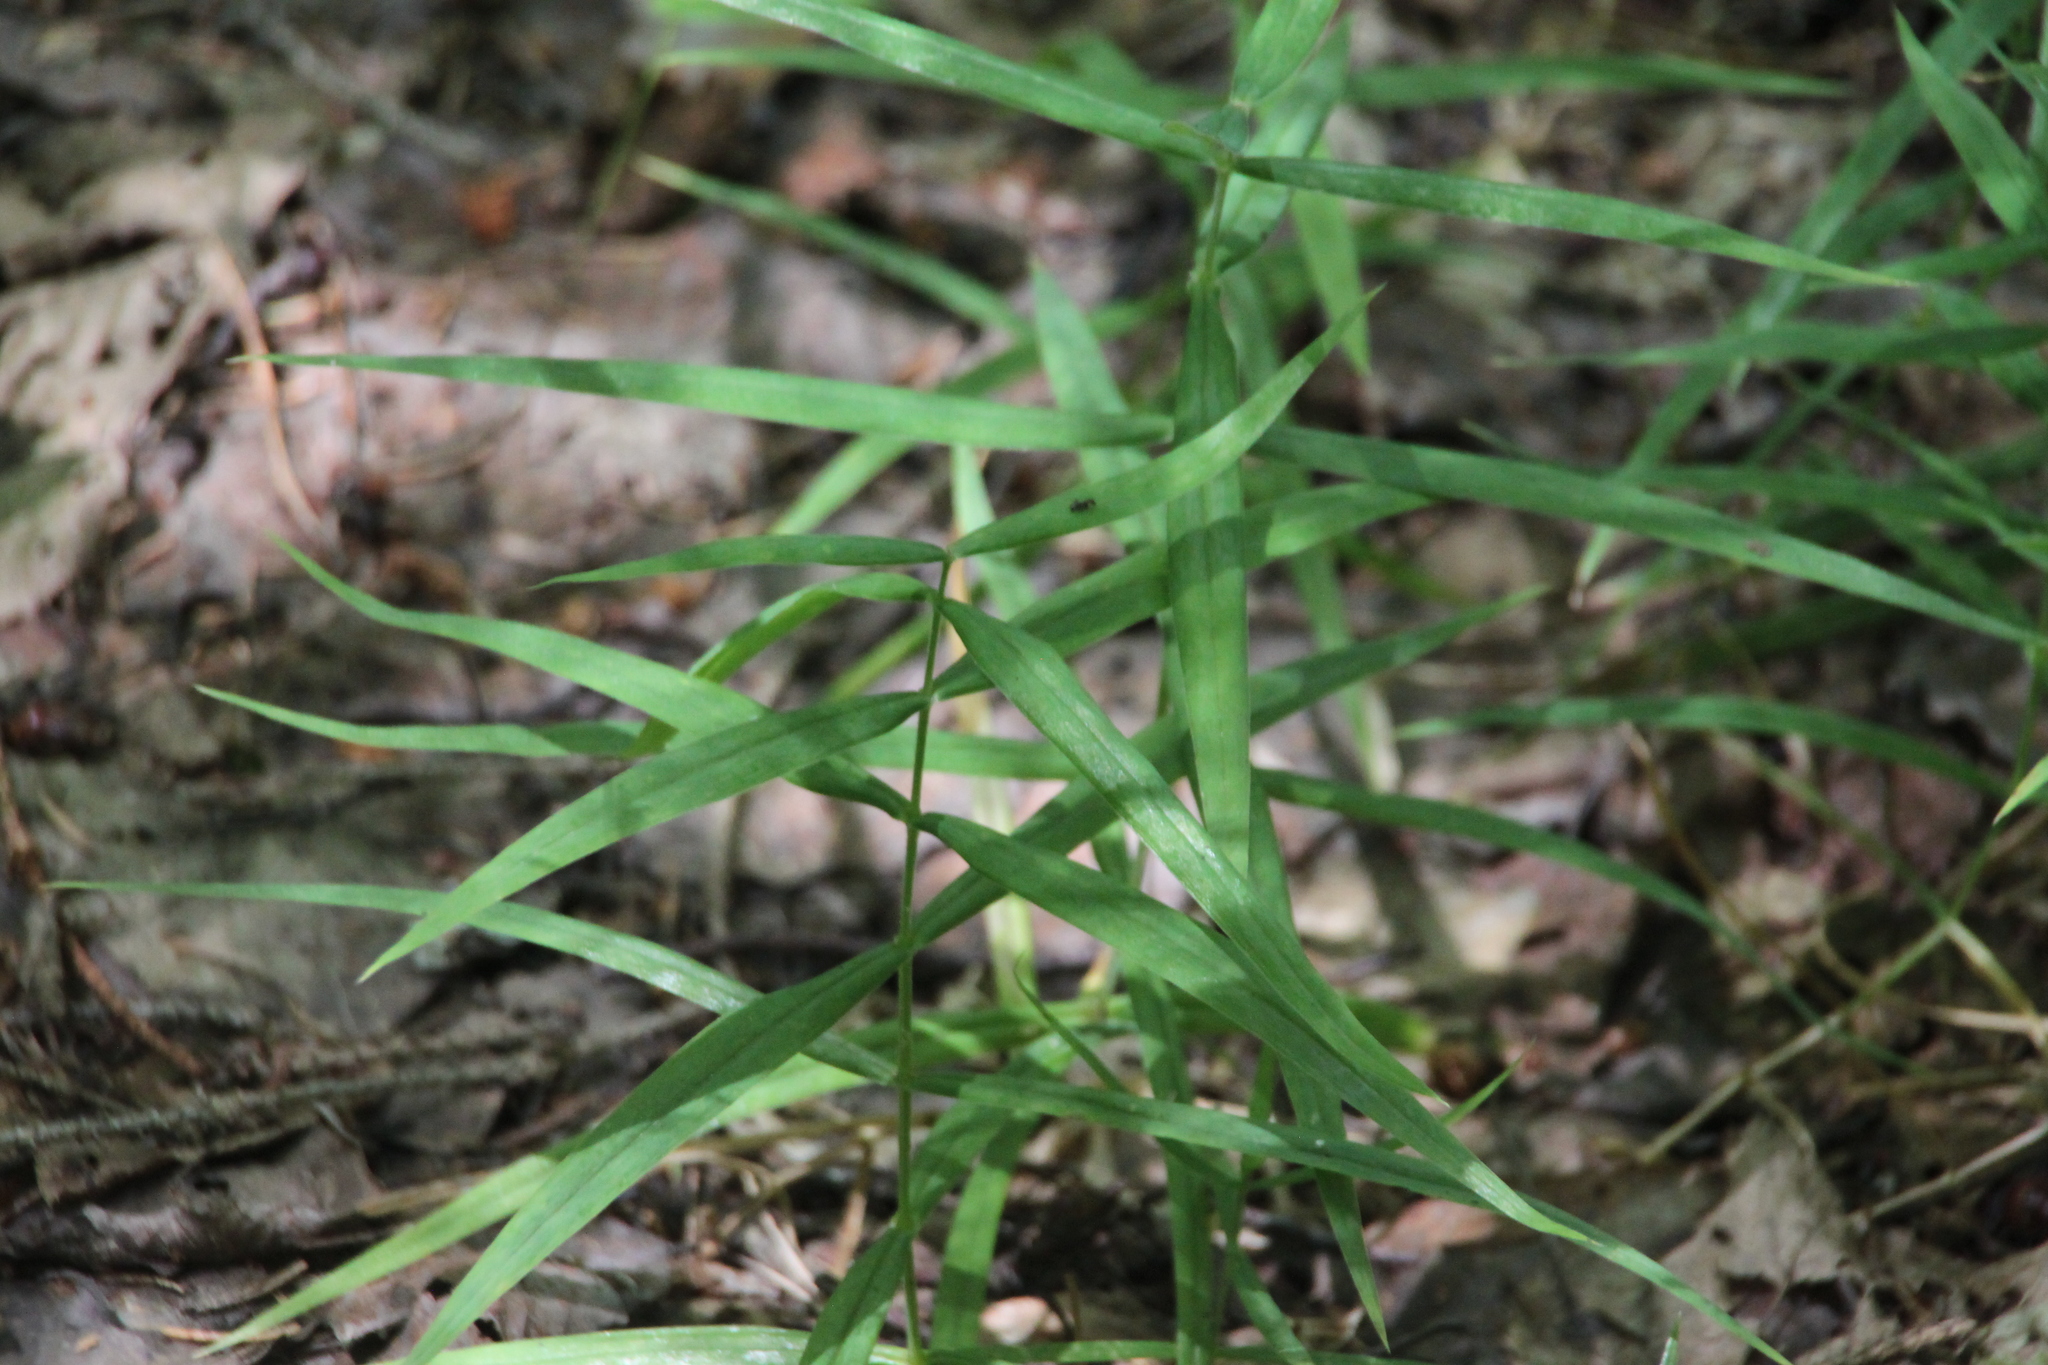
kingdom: Plantae
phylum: Tracheophyta
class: Magnoliopsida
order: Caryophyllales
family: Caryophyllaceae
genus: Rabelera
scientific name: Rabelera holostea
